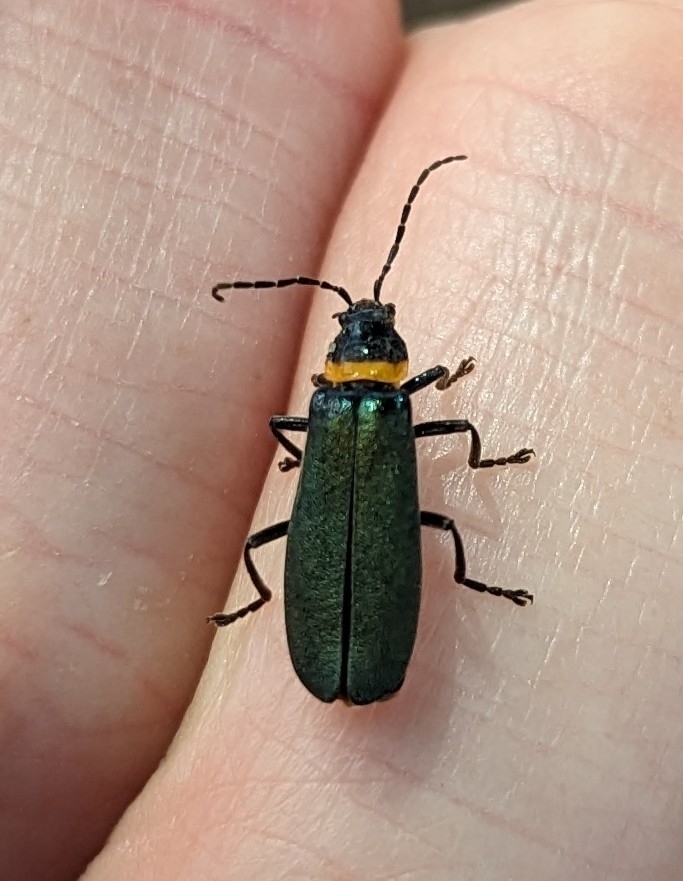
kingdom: Animalia
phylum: Arthropoda
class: Insecta
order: Coleoptera
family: Cantharidae
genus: Chauliognathus
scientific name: Chauliognathus
